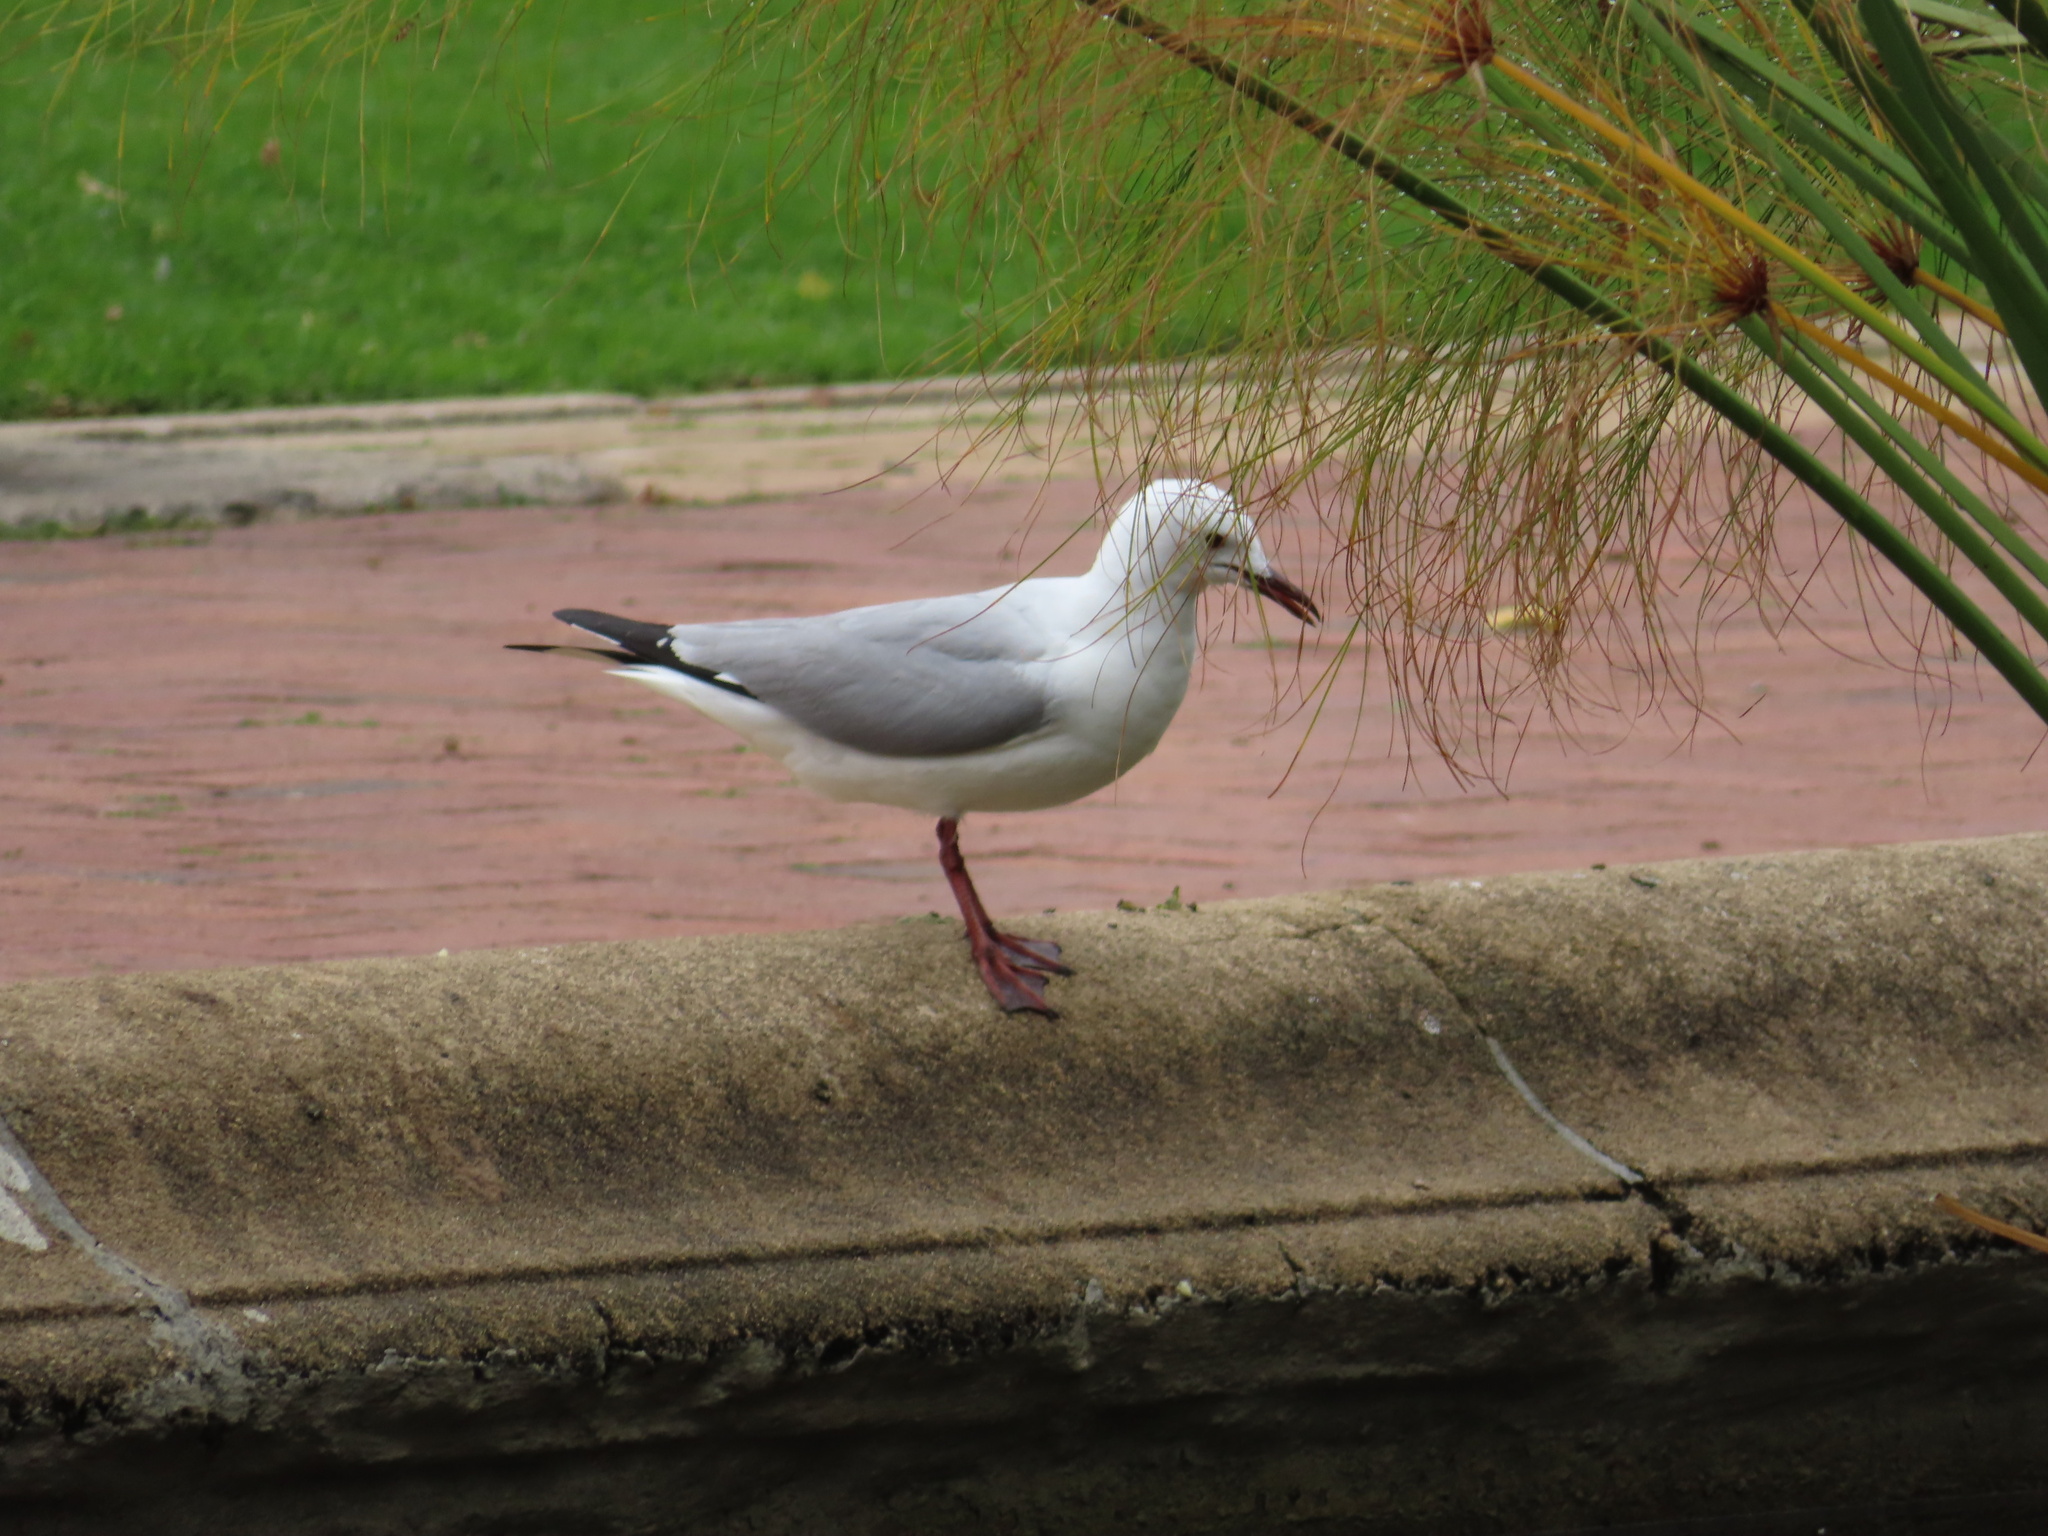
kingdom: Animalia
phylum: Chordata
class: Aves
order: Charadriiformes
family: Laridae
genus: Chroicocephalus
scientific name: Chroicocephalus hartlaubii
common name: Hartlaub's gull
